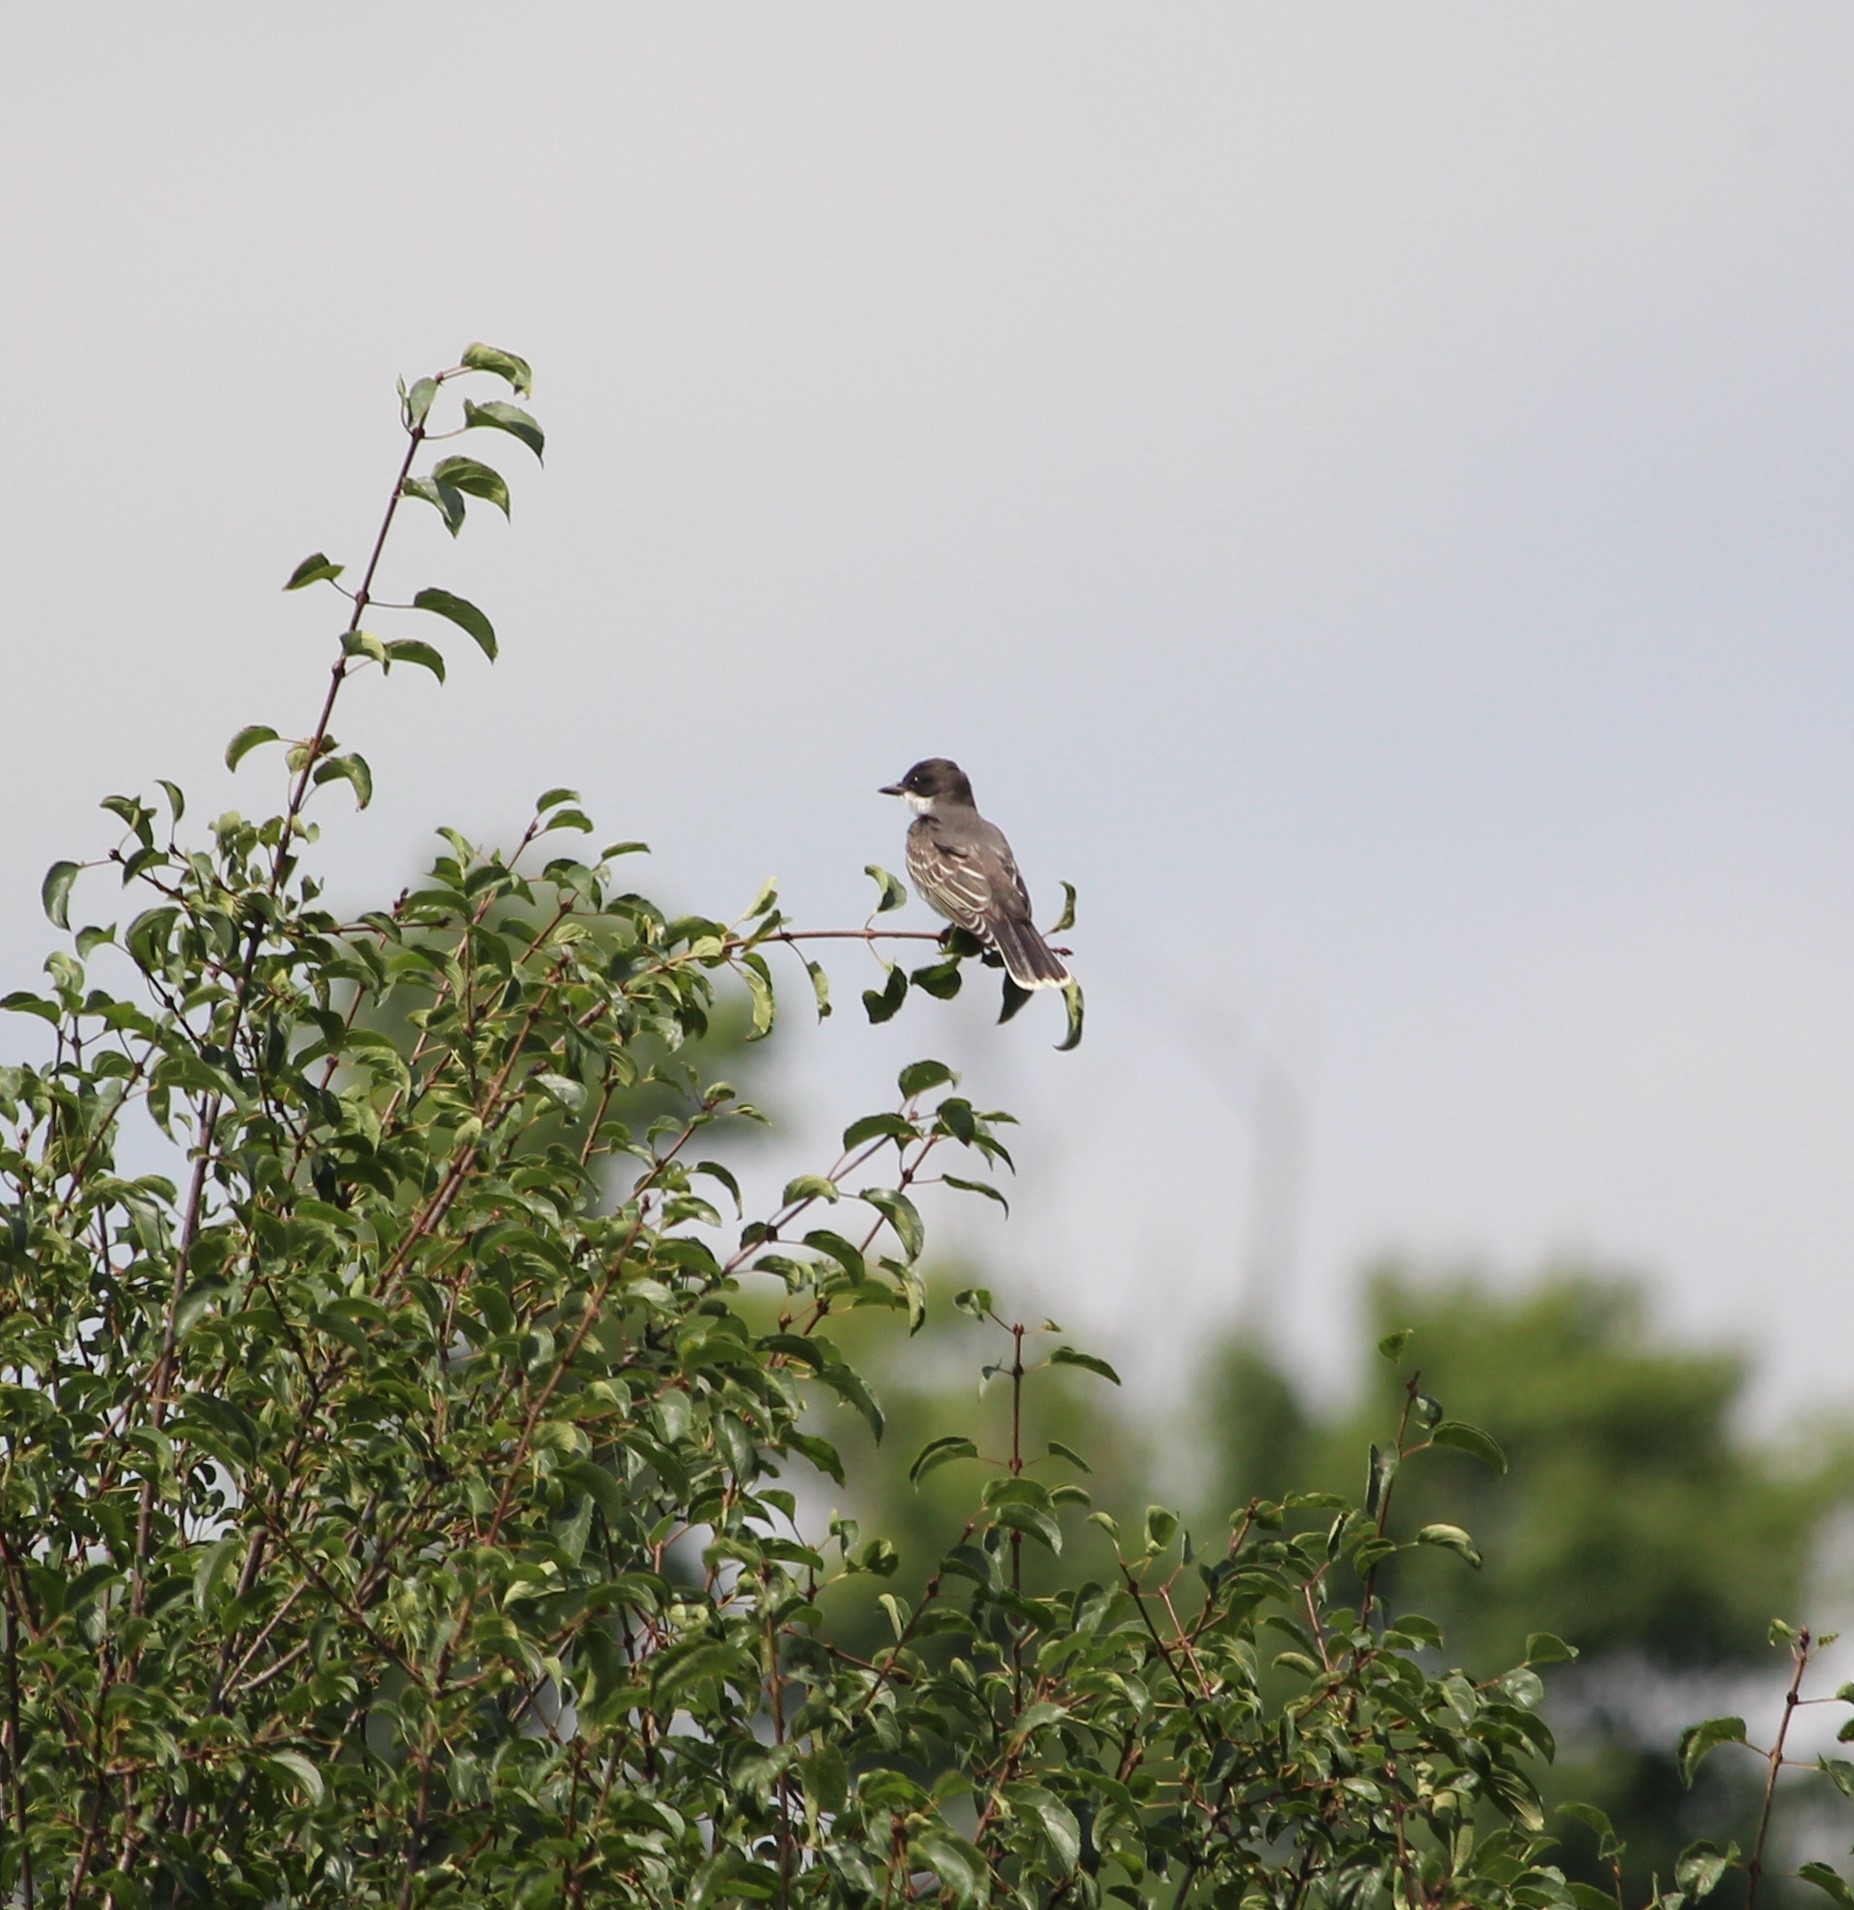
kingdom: Animalia
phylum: Chordata
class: Aves
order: Passeriformes
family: Tyrannidae
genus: Tyrannus
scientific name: Tyrannus tyrannus
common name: Eastern kingbird
